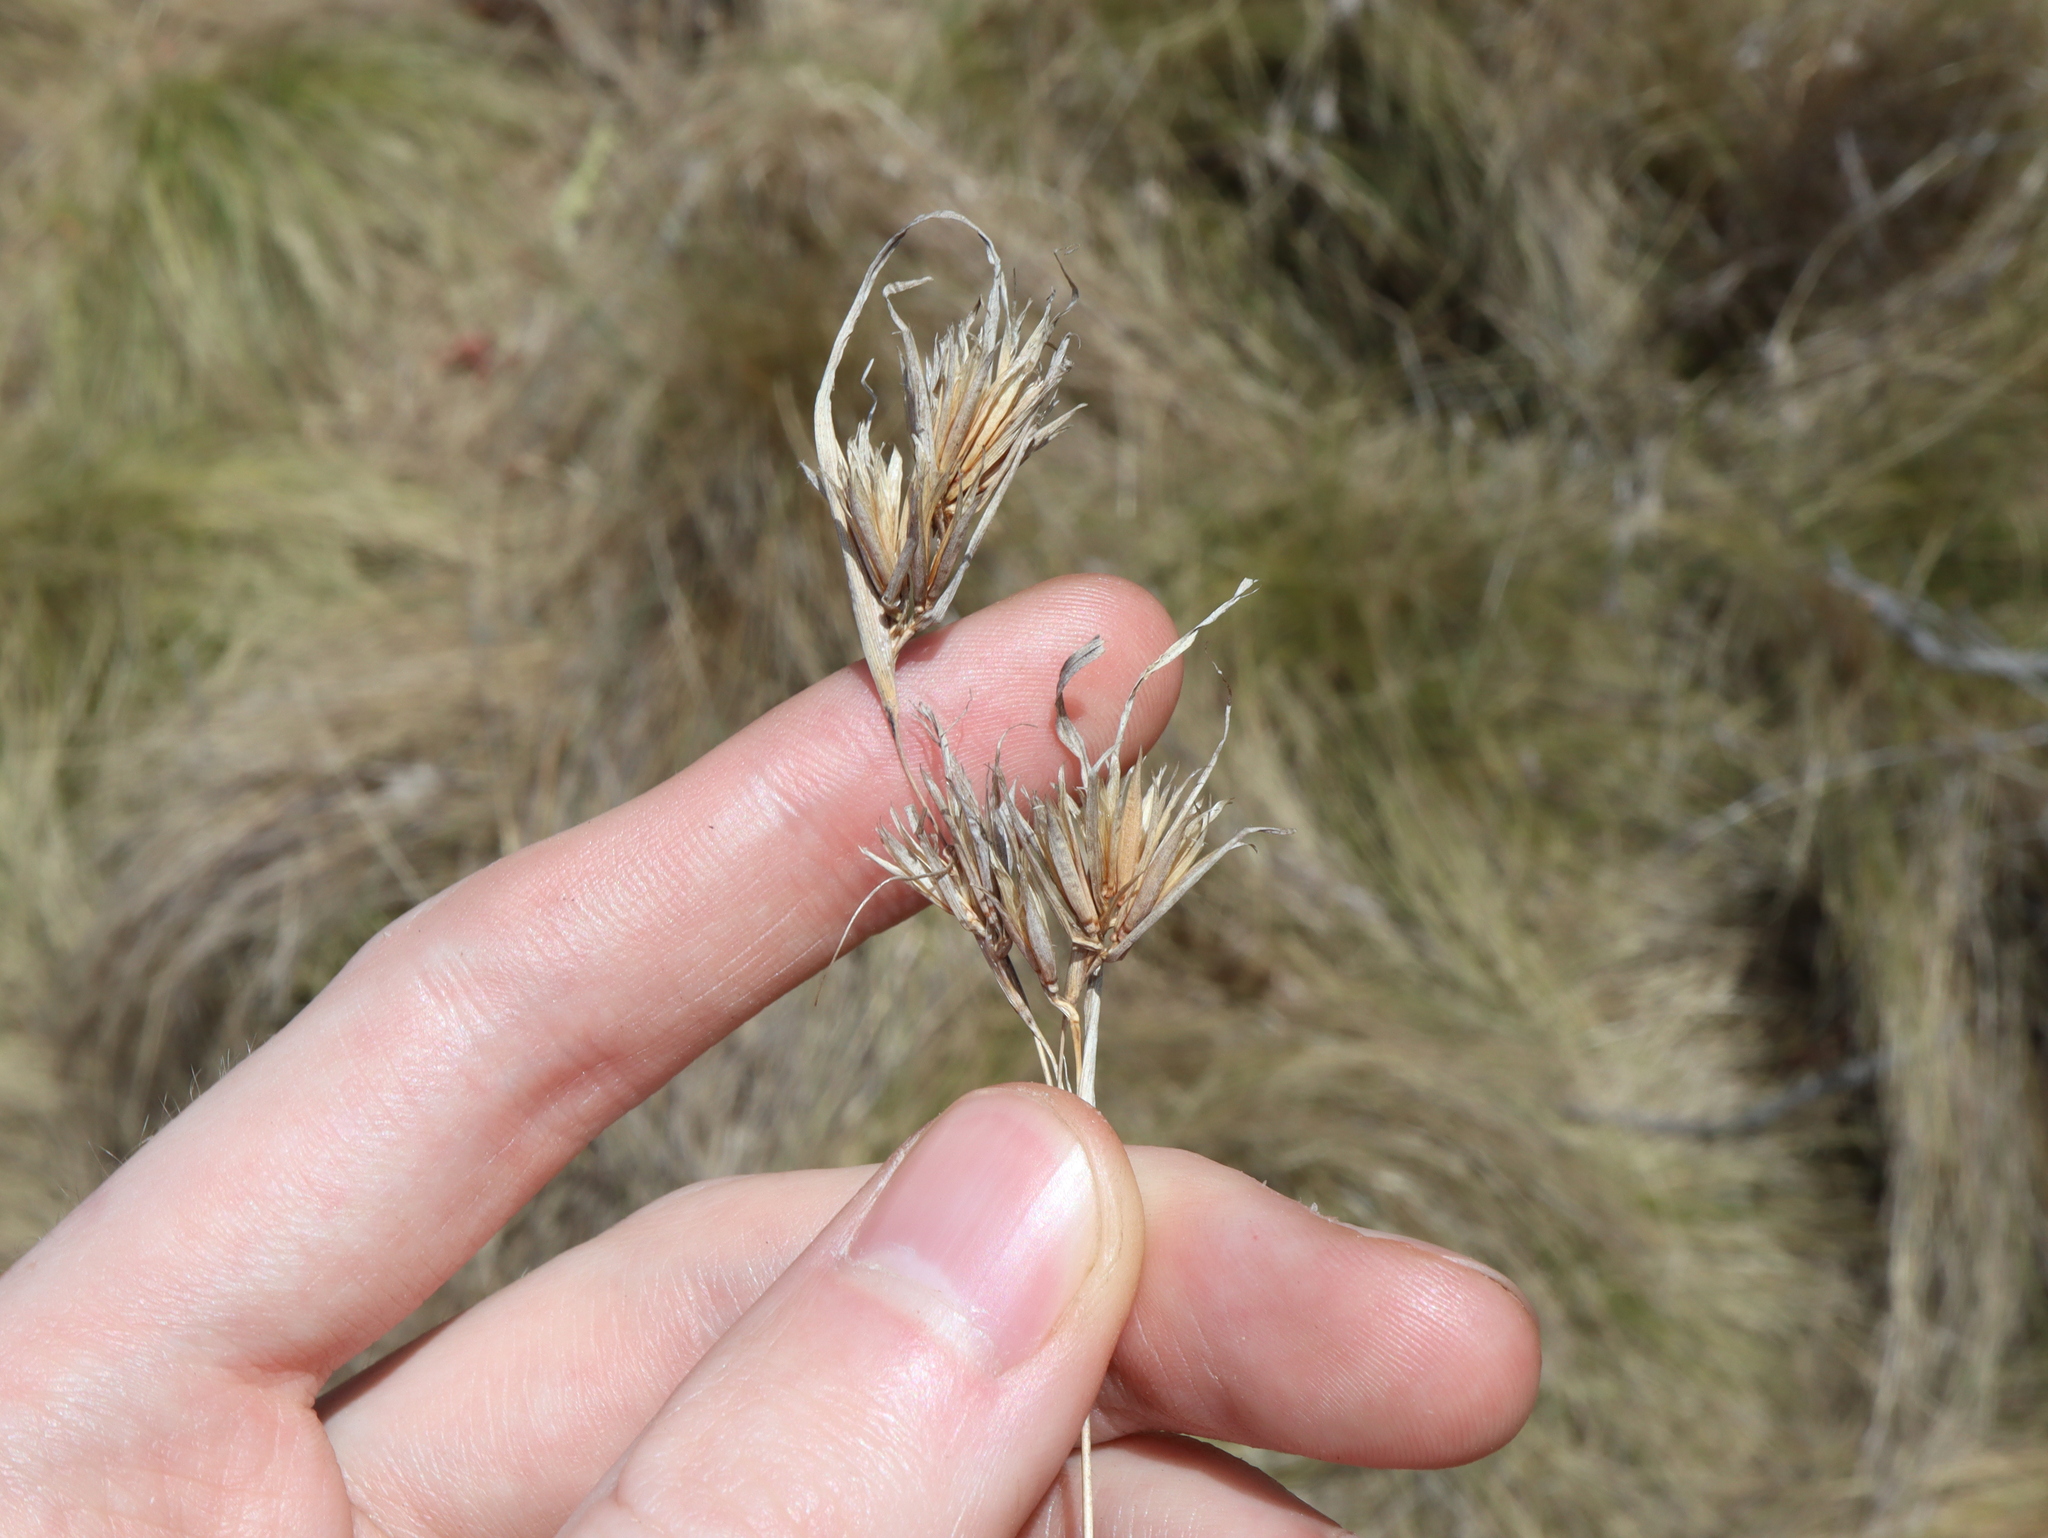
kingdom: Plantae
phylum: Tracheophyta
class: Liliopsida
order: Poales
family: Poaceae
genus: Themeda
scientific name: Themeda triandra
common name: Kangaroo grass
